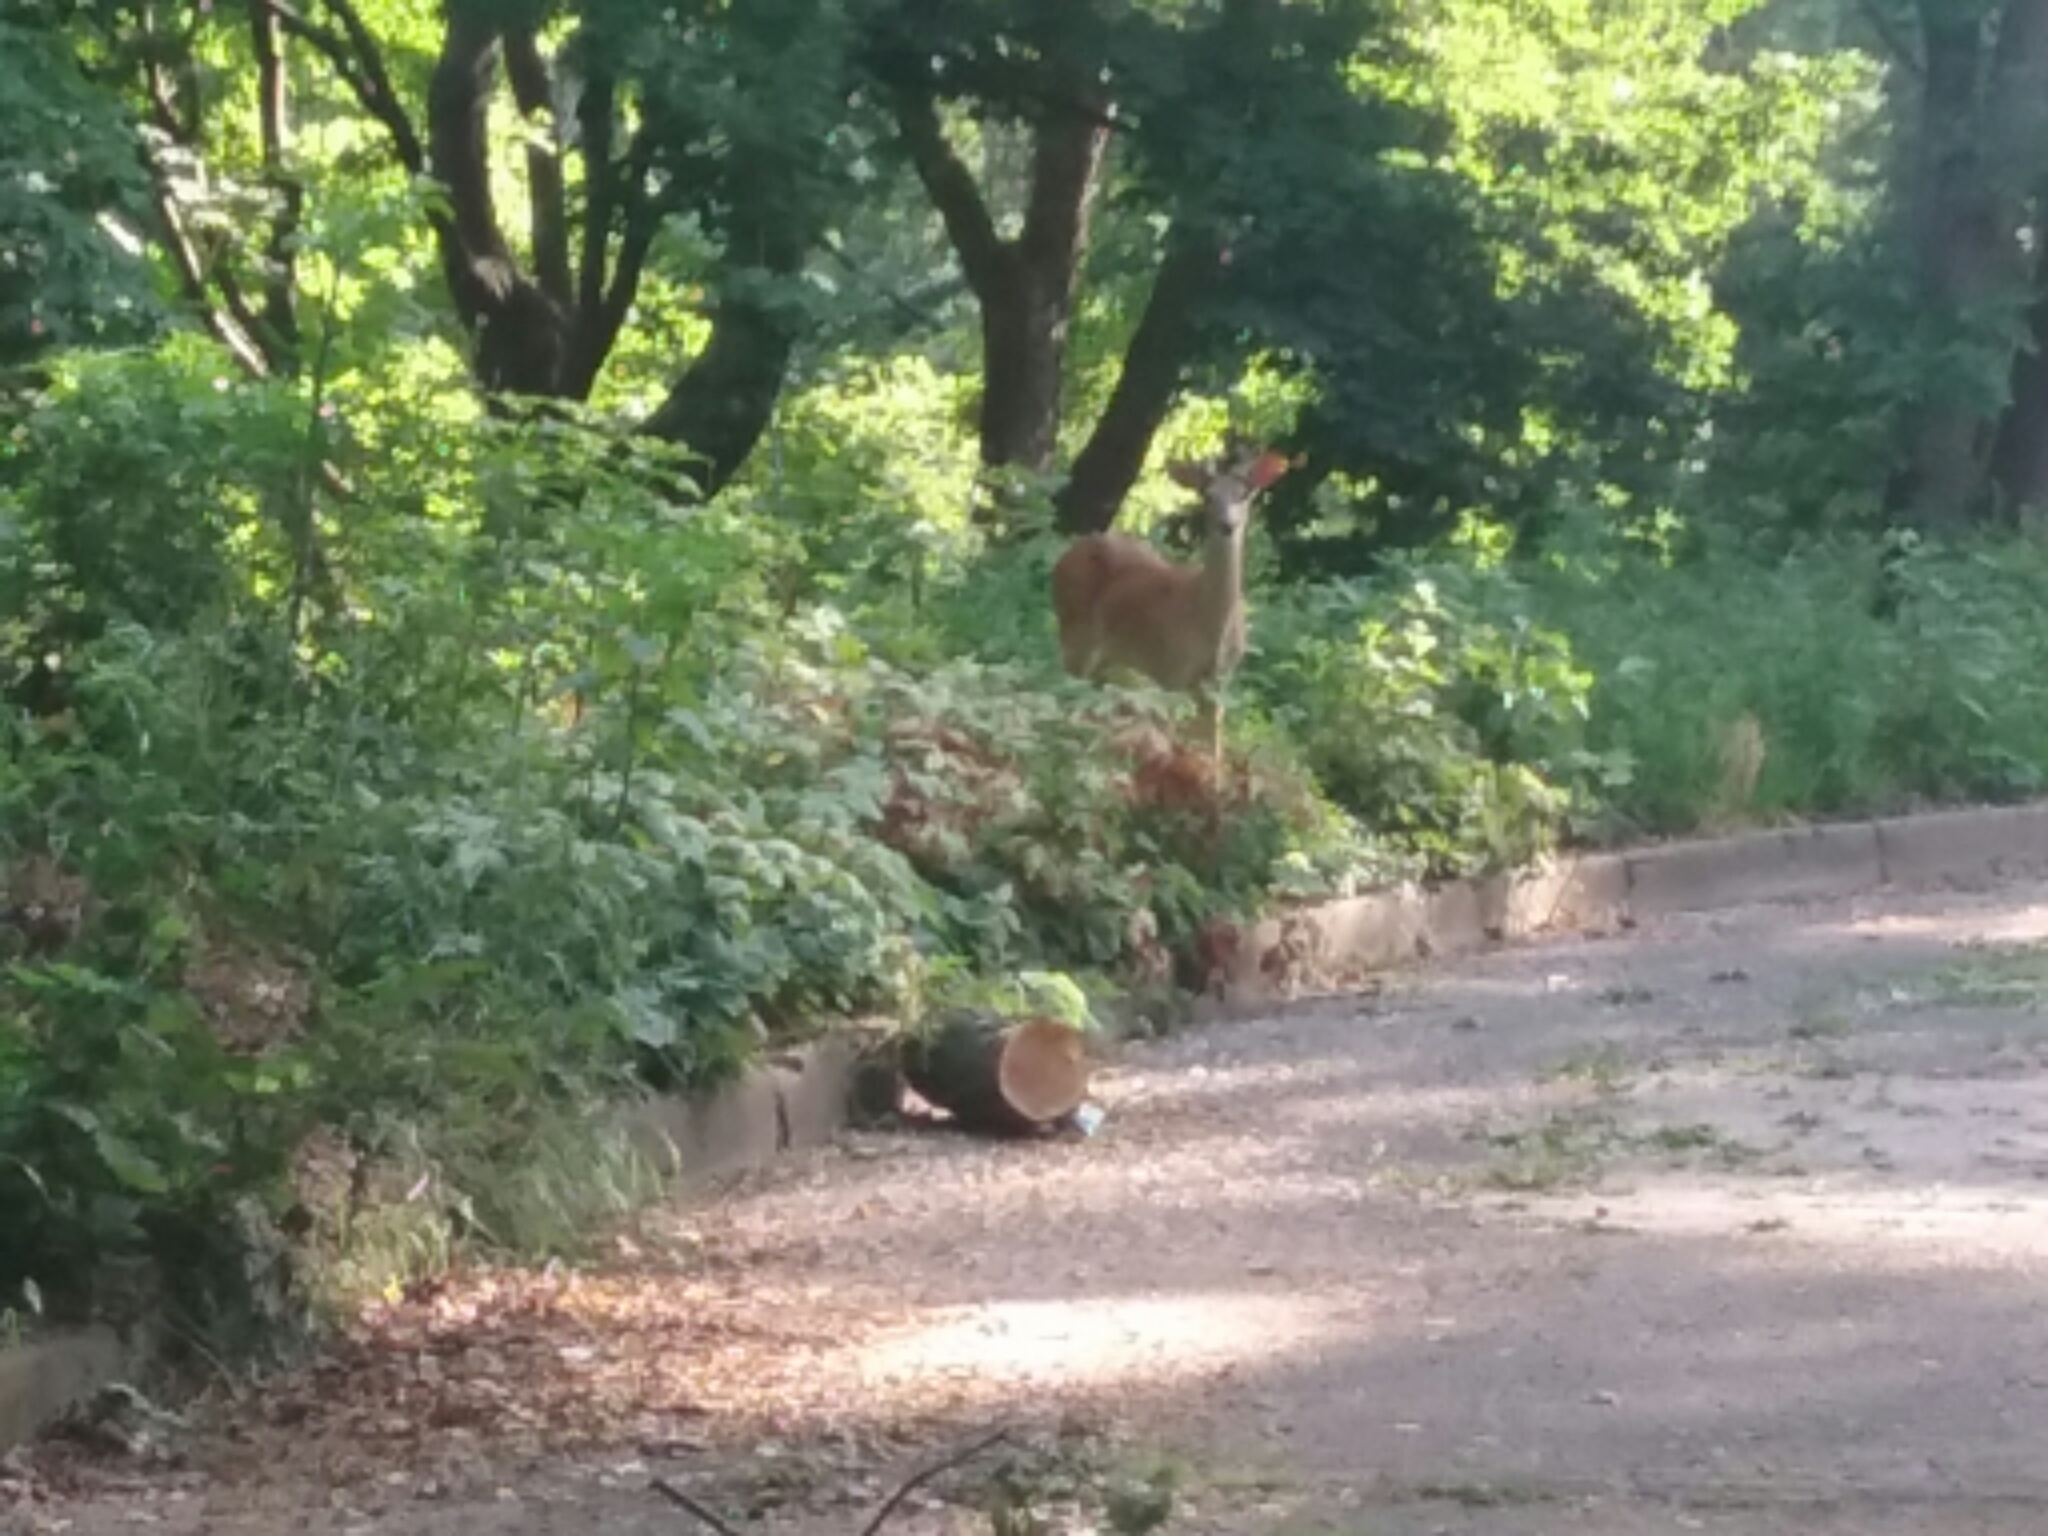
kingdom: Animalia
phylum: Chordata
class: Mammalia
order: Artiodactyla
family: Cervidae
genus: Odocoileus
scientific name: Odocoileus virginianus
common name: White-tailed deer
